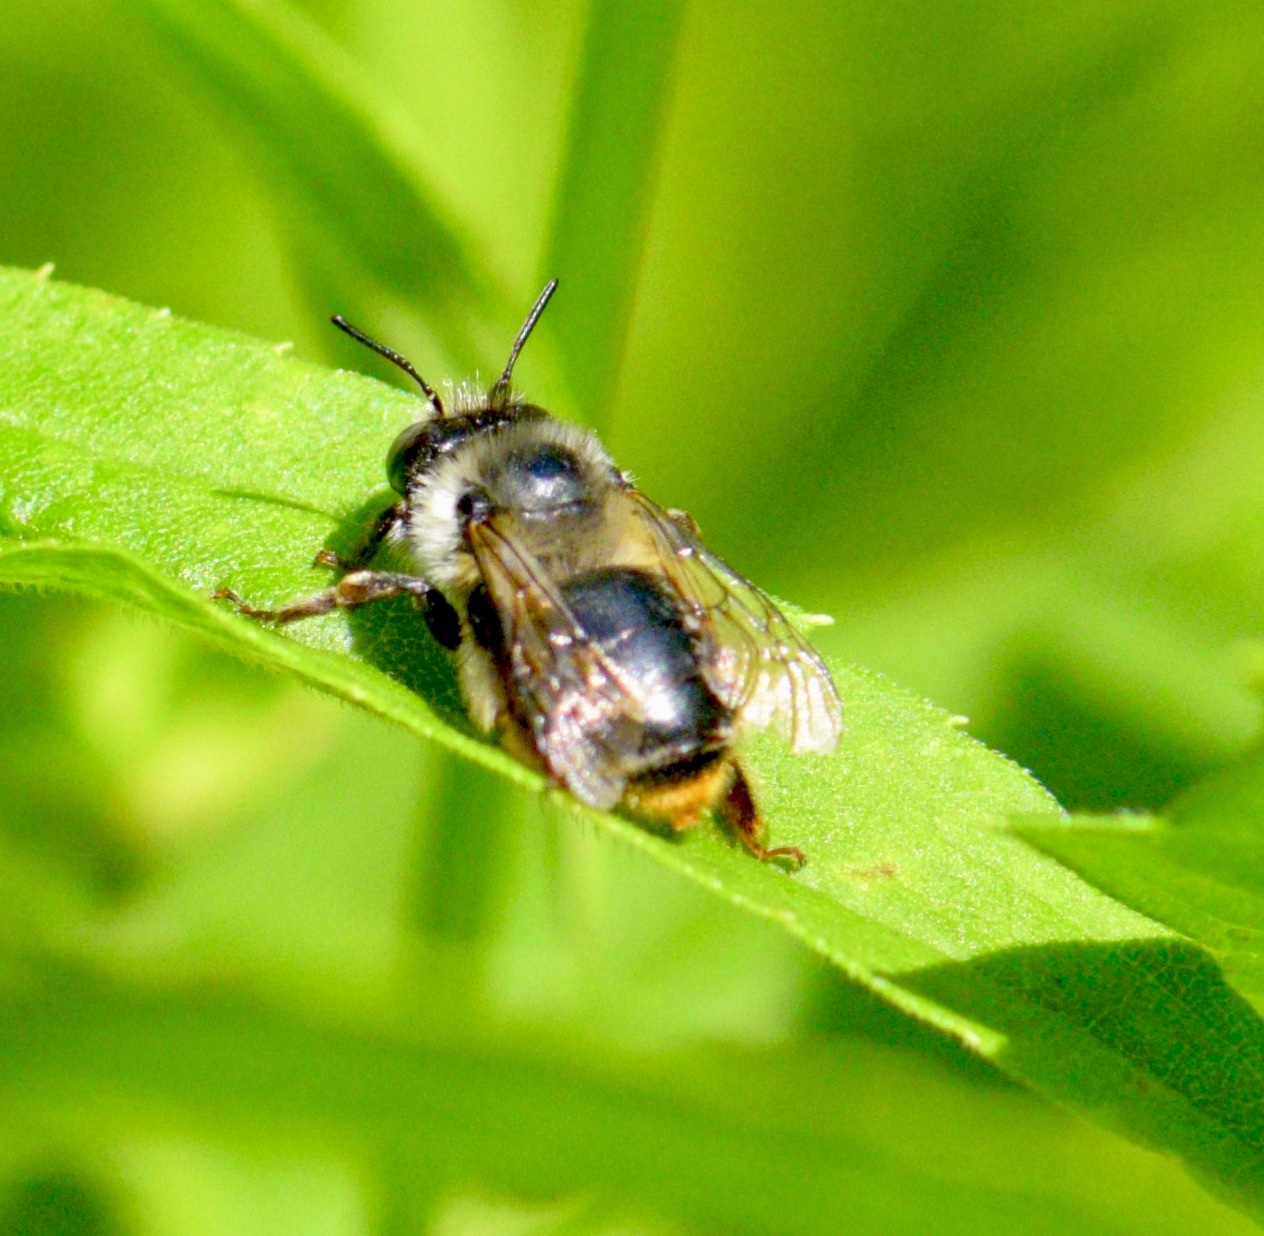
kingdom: Animalia
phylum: Arthropoda
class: Insecta
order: Hymenoptera
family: Apidae
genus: Anthophora
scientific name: Anthophora terminalis
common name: Orange-tipped wood-digger bee
